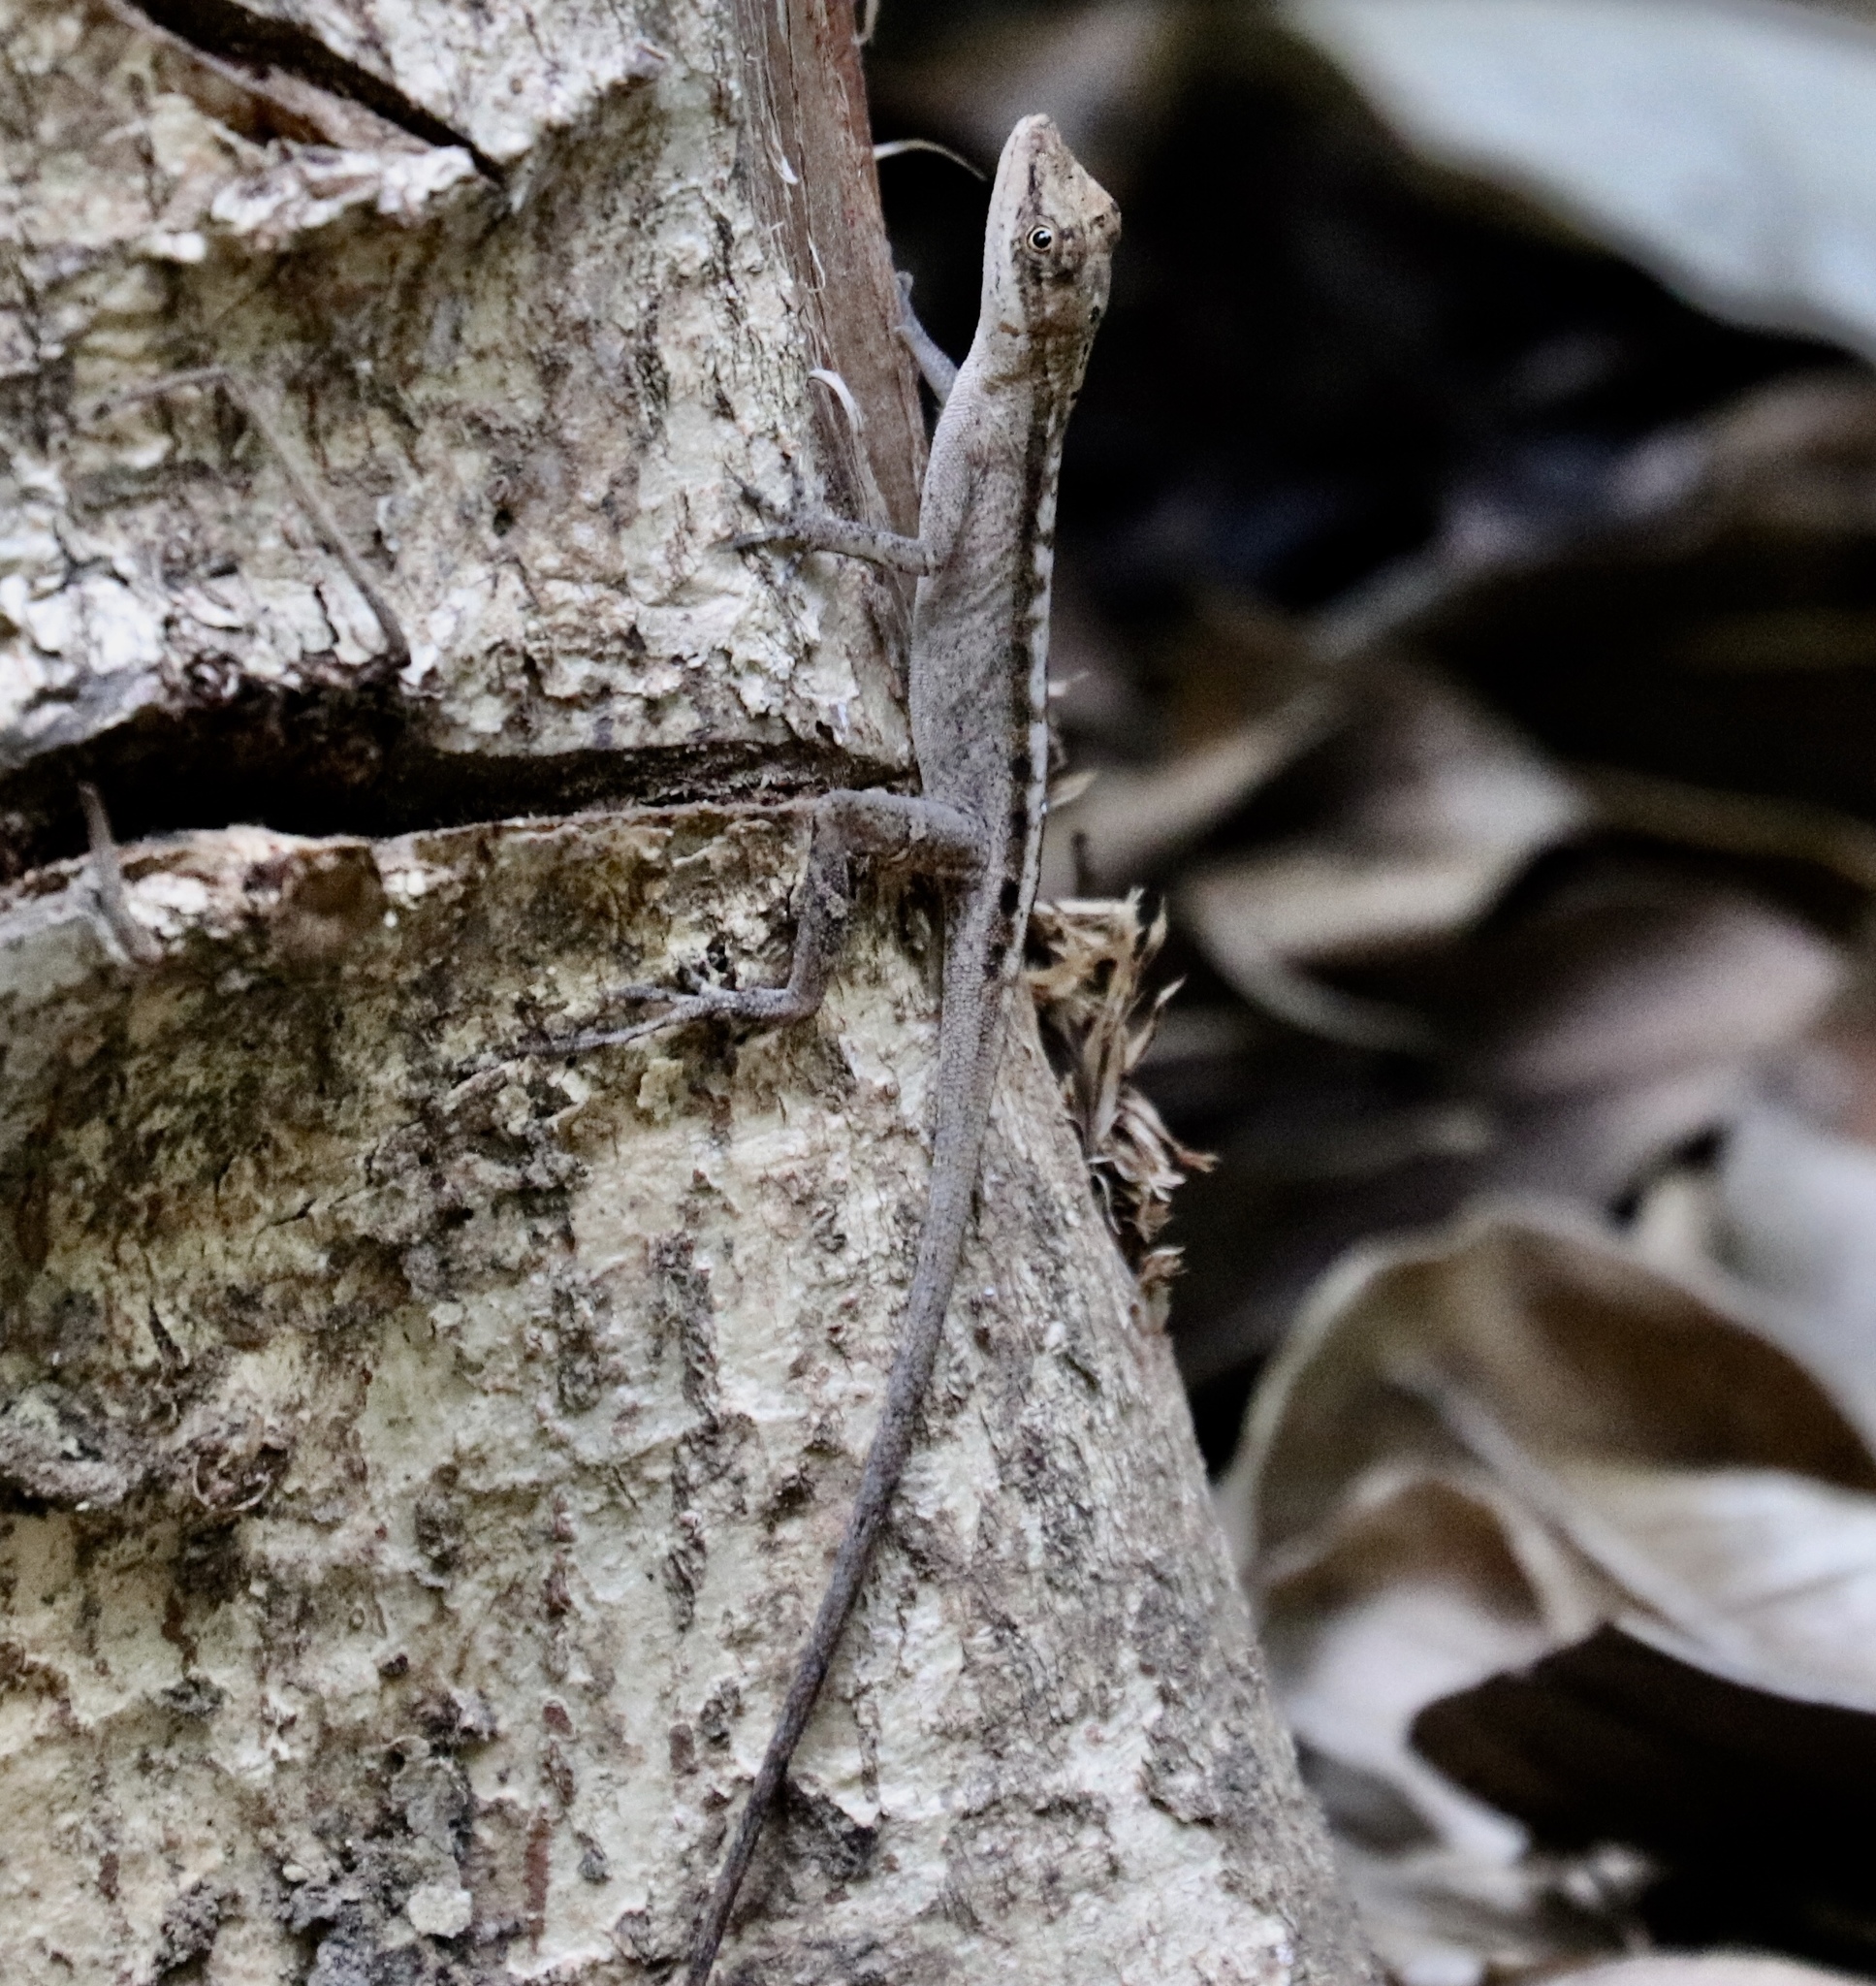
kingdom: Animalia
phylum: Chordata
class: Squamata
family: Dactyloidae
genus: Anolis
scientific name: Anolis apletophallus
